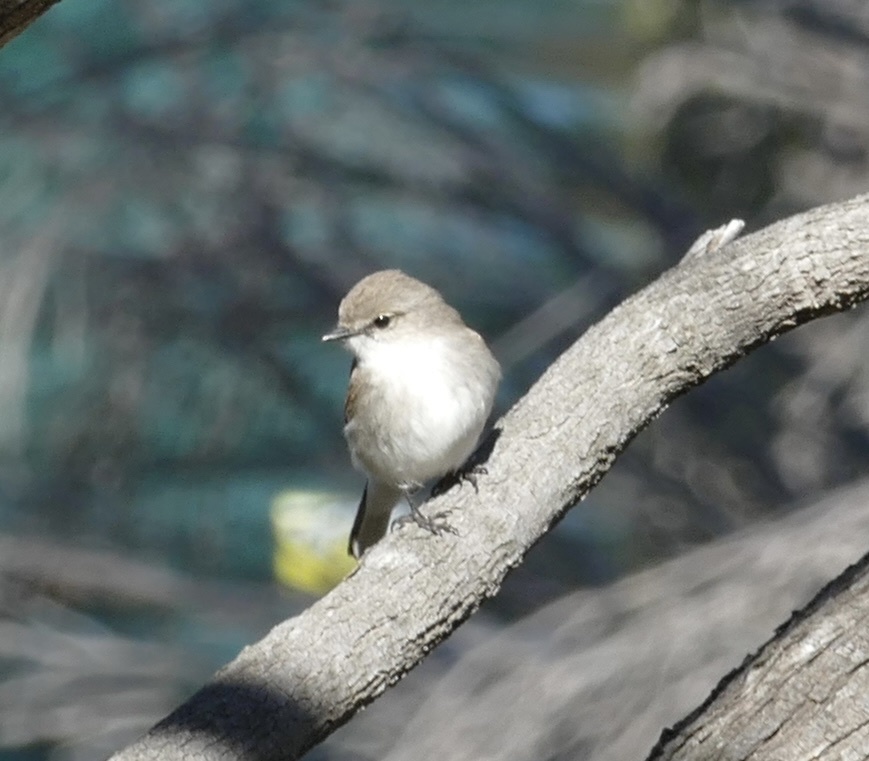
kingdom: Animalia
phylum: Chordata
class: Aves
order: Passeriformes
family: Petroicidae
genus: Microeca
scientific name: Microeca fascinans
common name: Jacky winter
